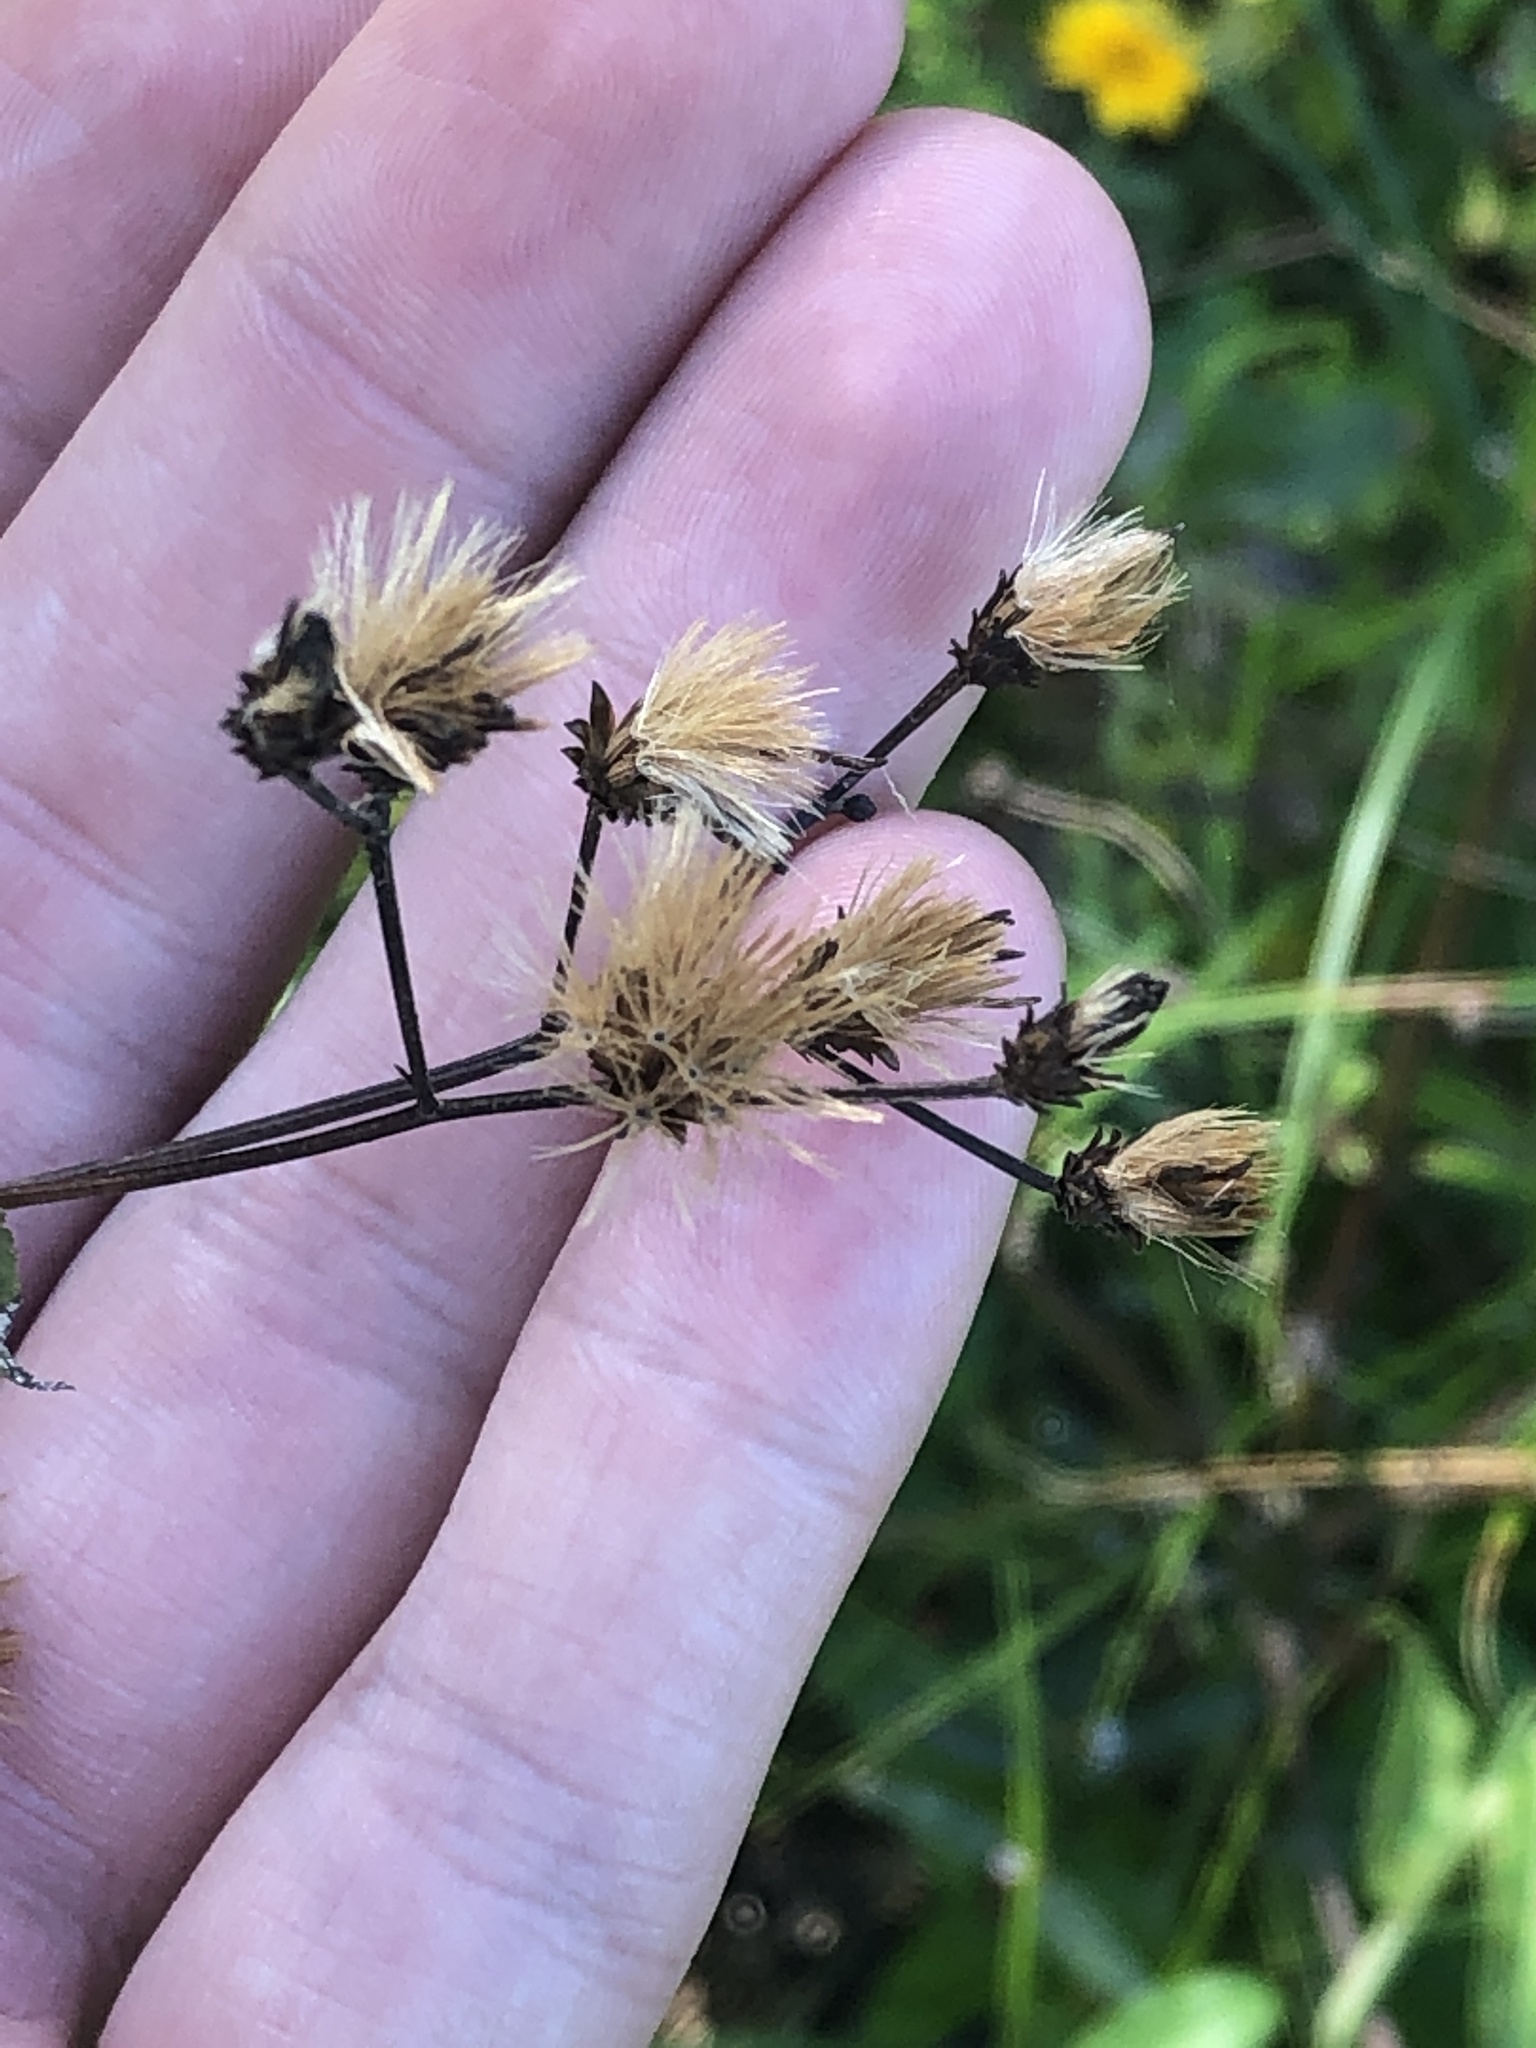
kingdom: Plantae
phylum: Tracheophyta
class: Magnoliopsida
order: Asterales
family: Asteraceae
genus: Vernonia
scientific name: Vernonia gigantea
